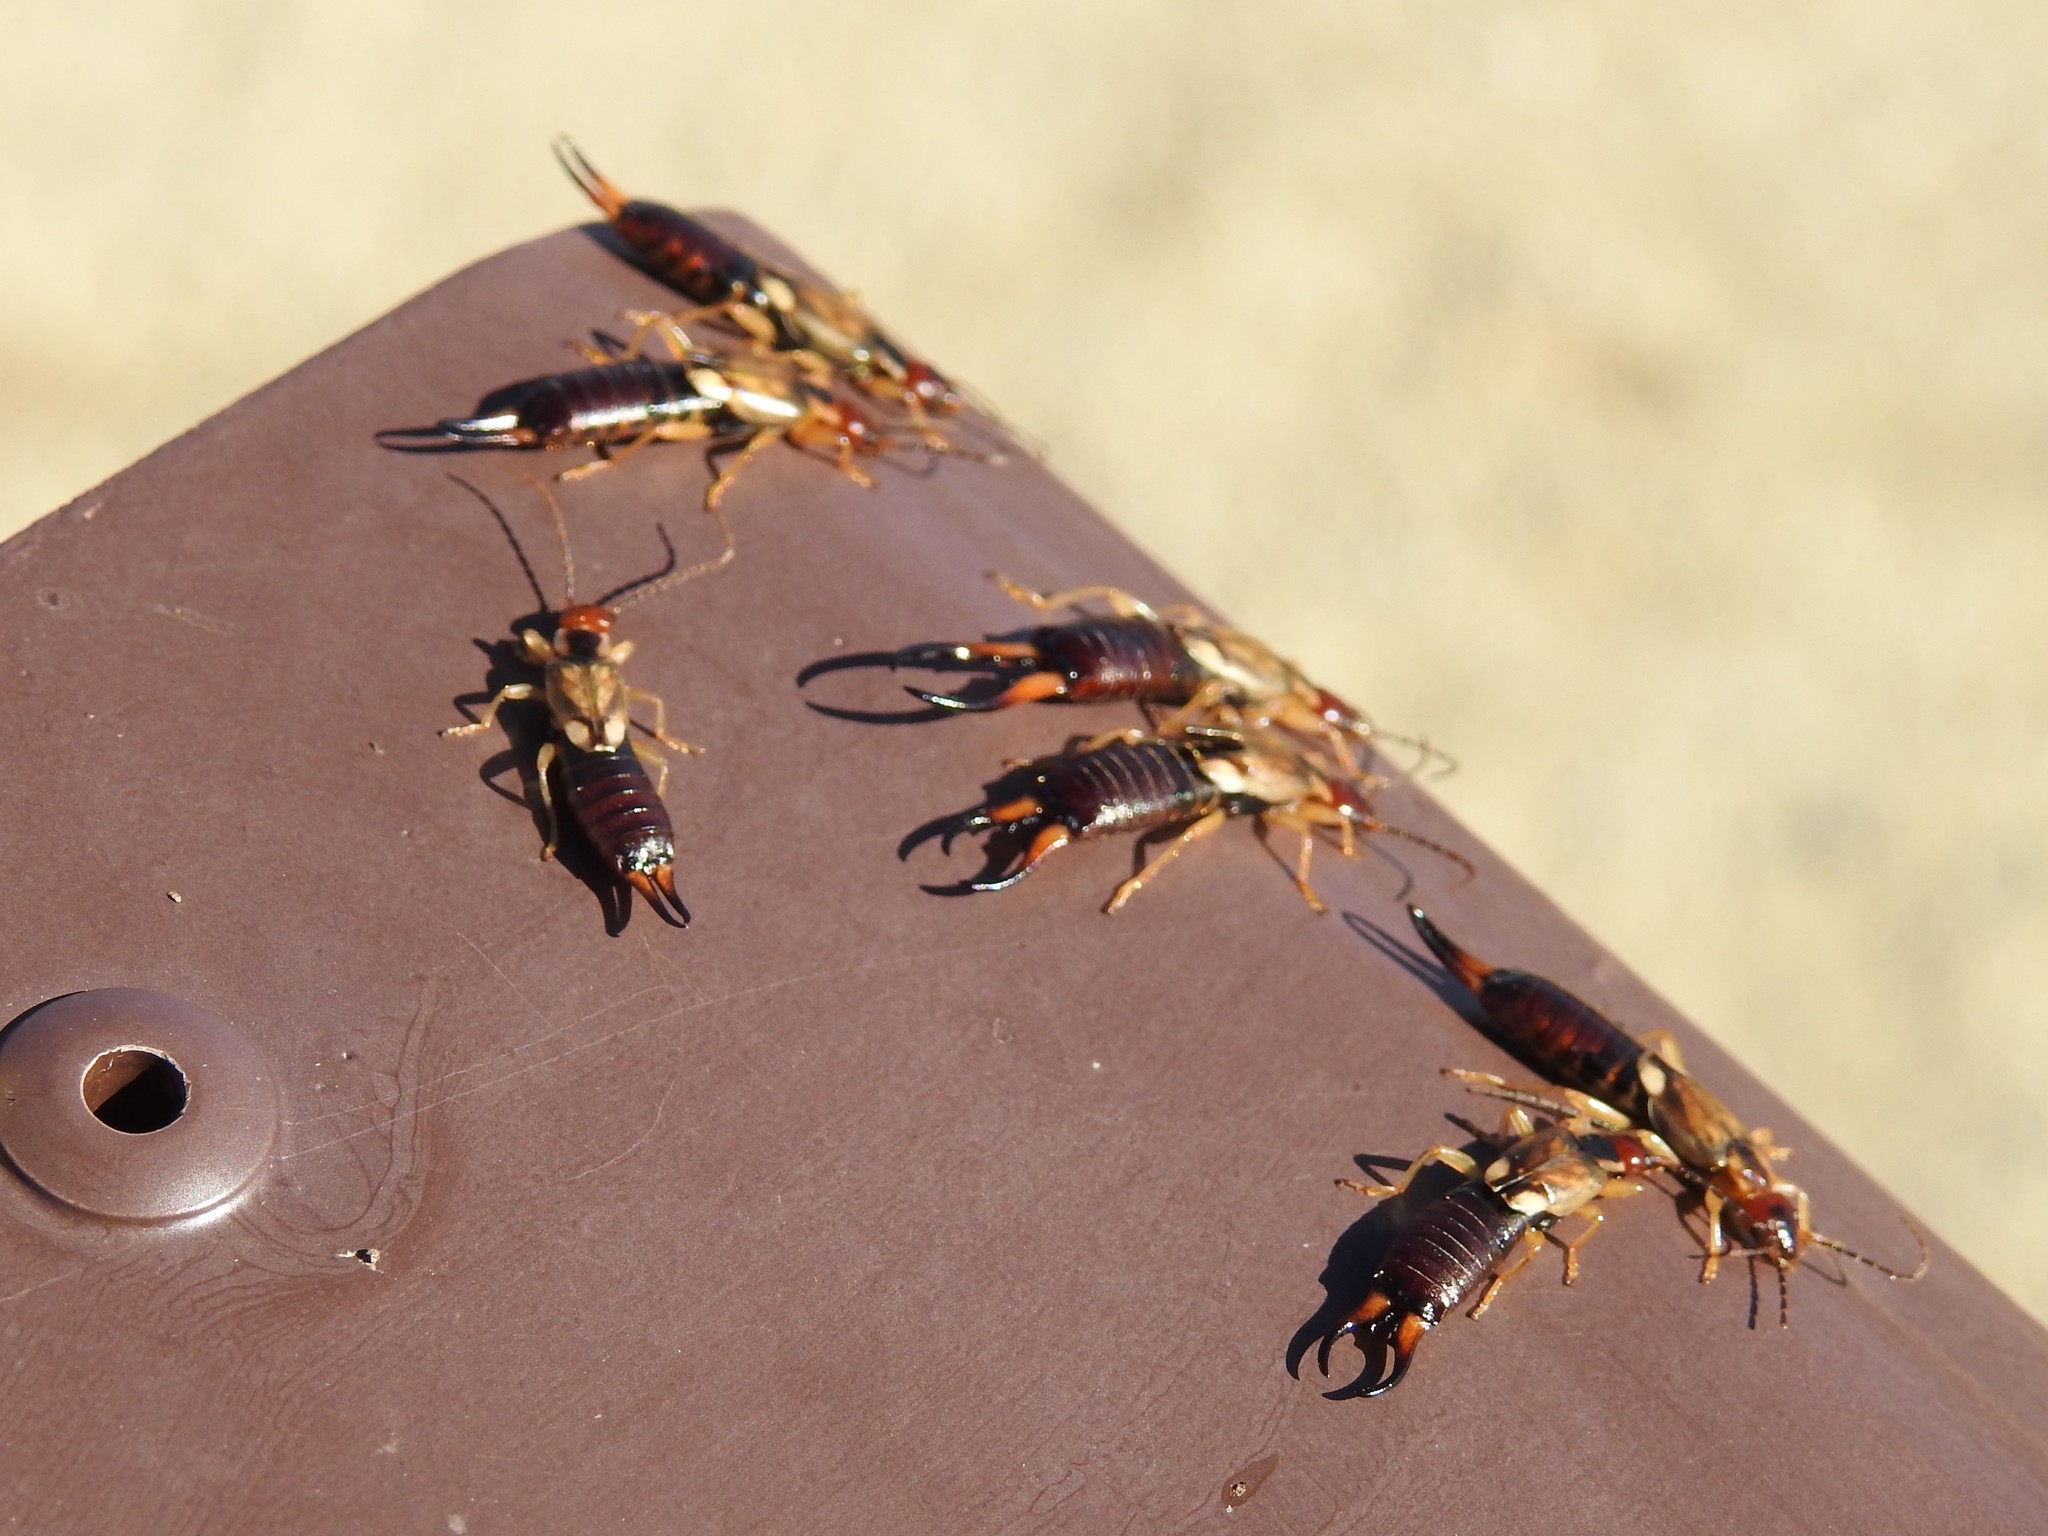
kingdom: Animalia
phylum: Arthropoda
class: Insecta
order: Dermaptera
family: Forficulidae
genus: Forficula
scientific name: Forficula
